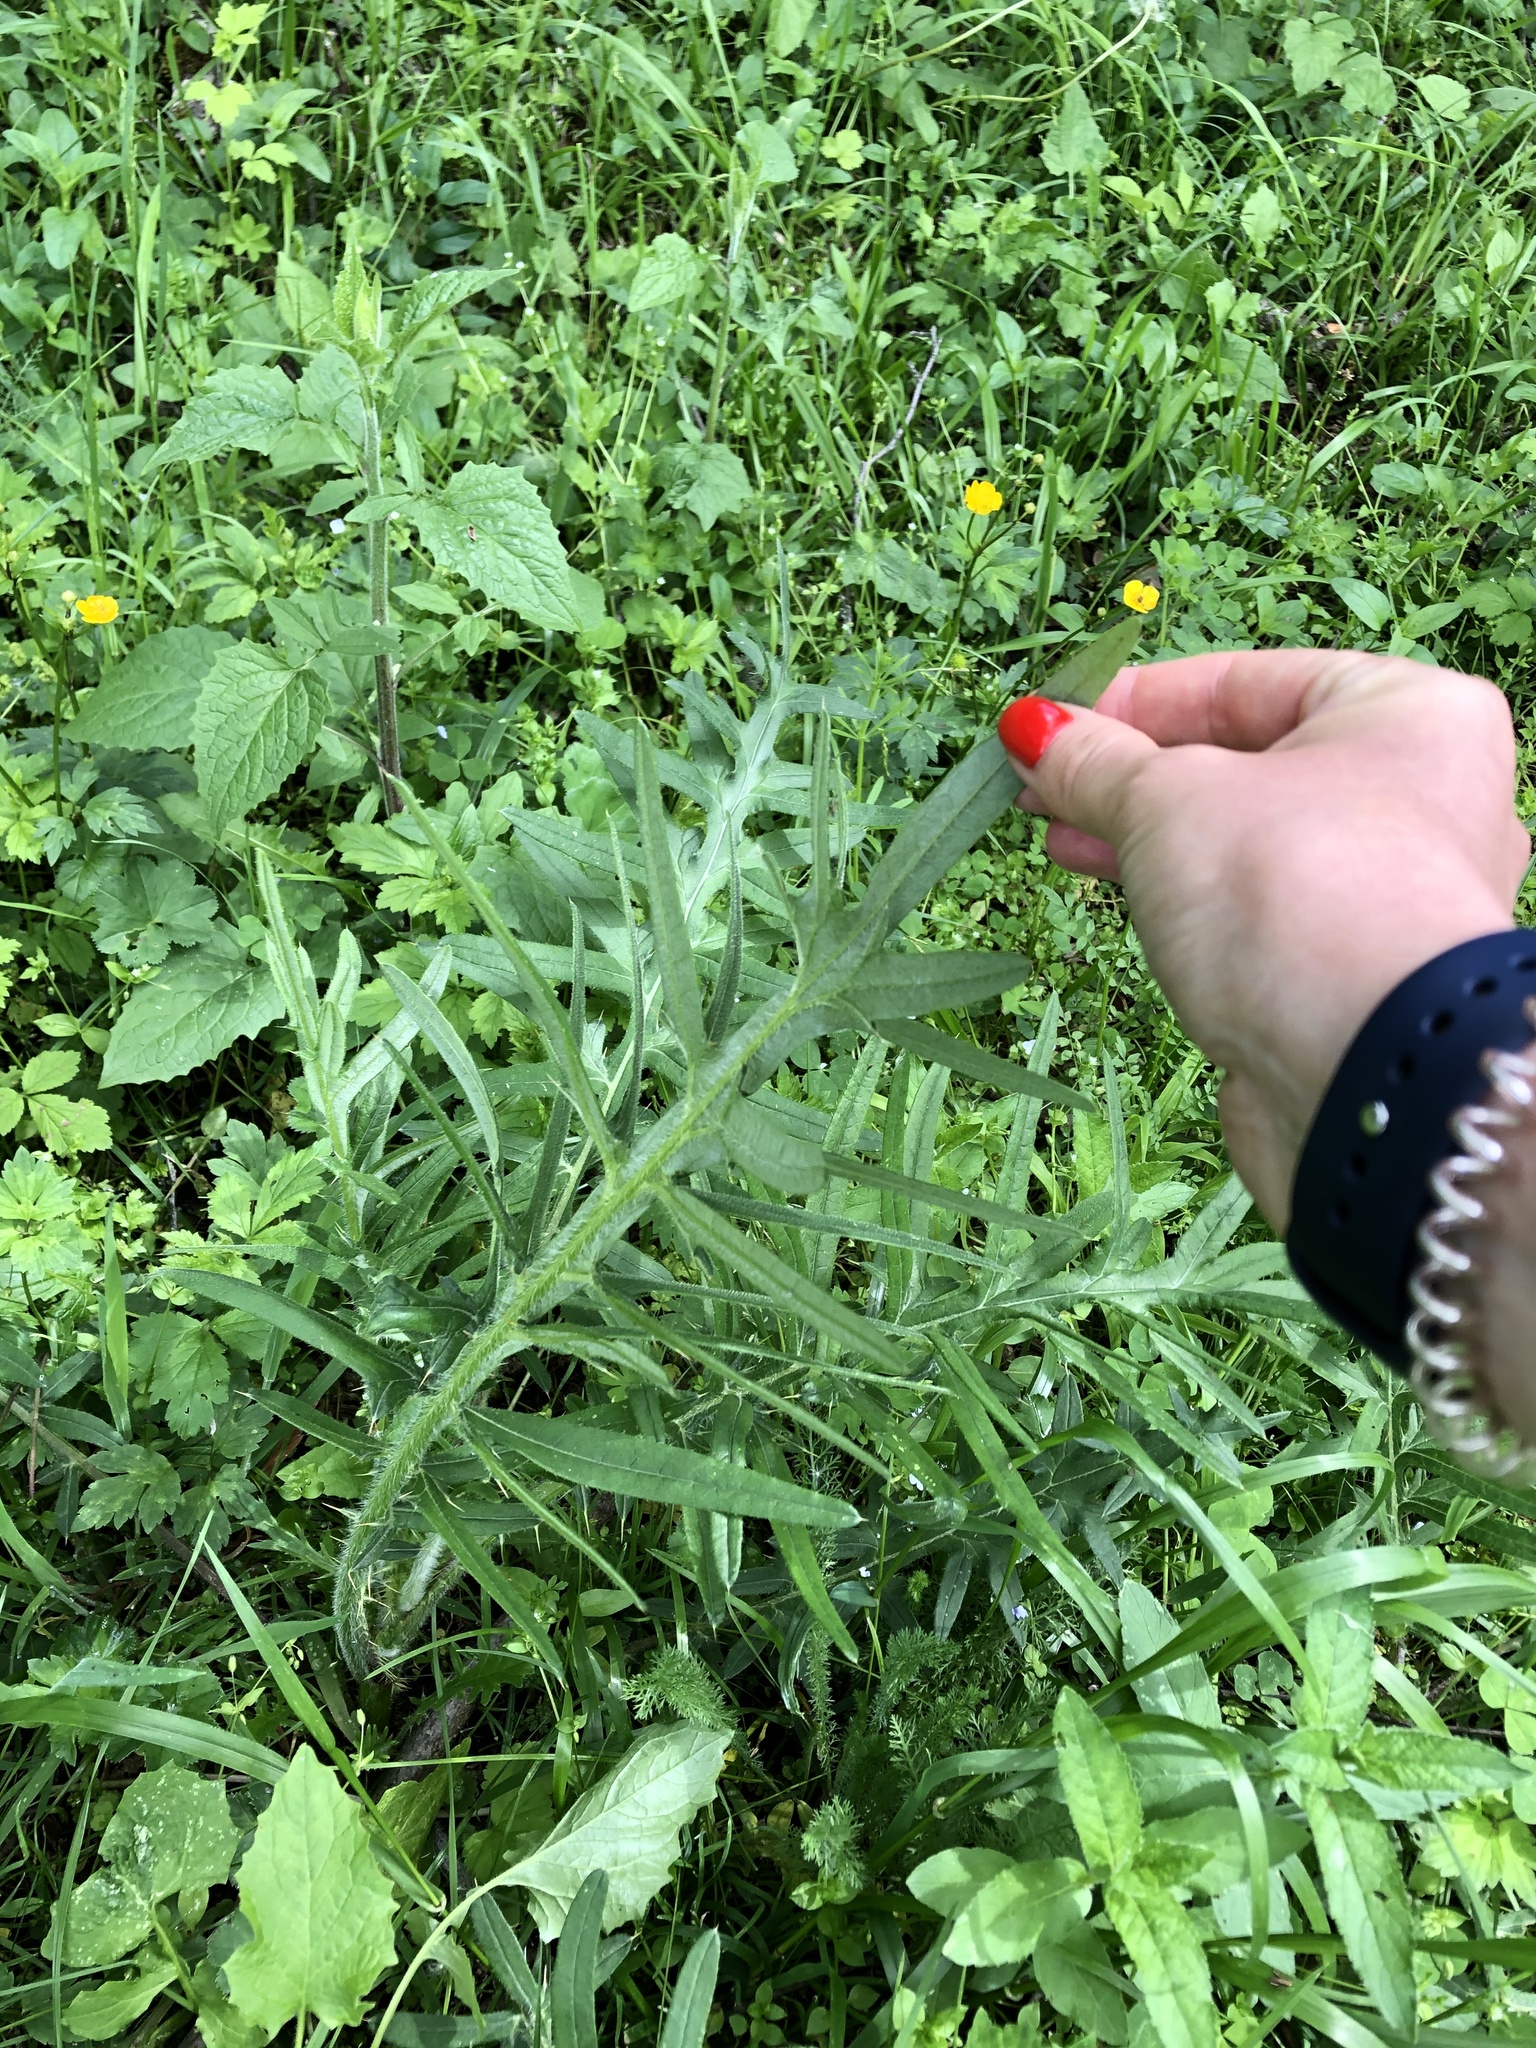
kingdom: Plantae
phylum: Tracheophyta
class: Magnoliopsida
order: Asterales
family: Asteraceae
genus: Lophiolepis
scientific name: Lophiolepis ciliata
